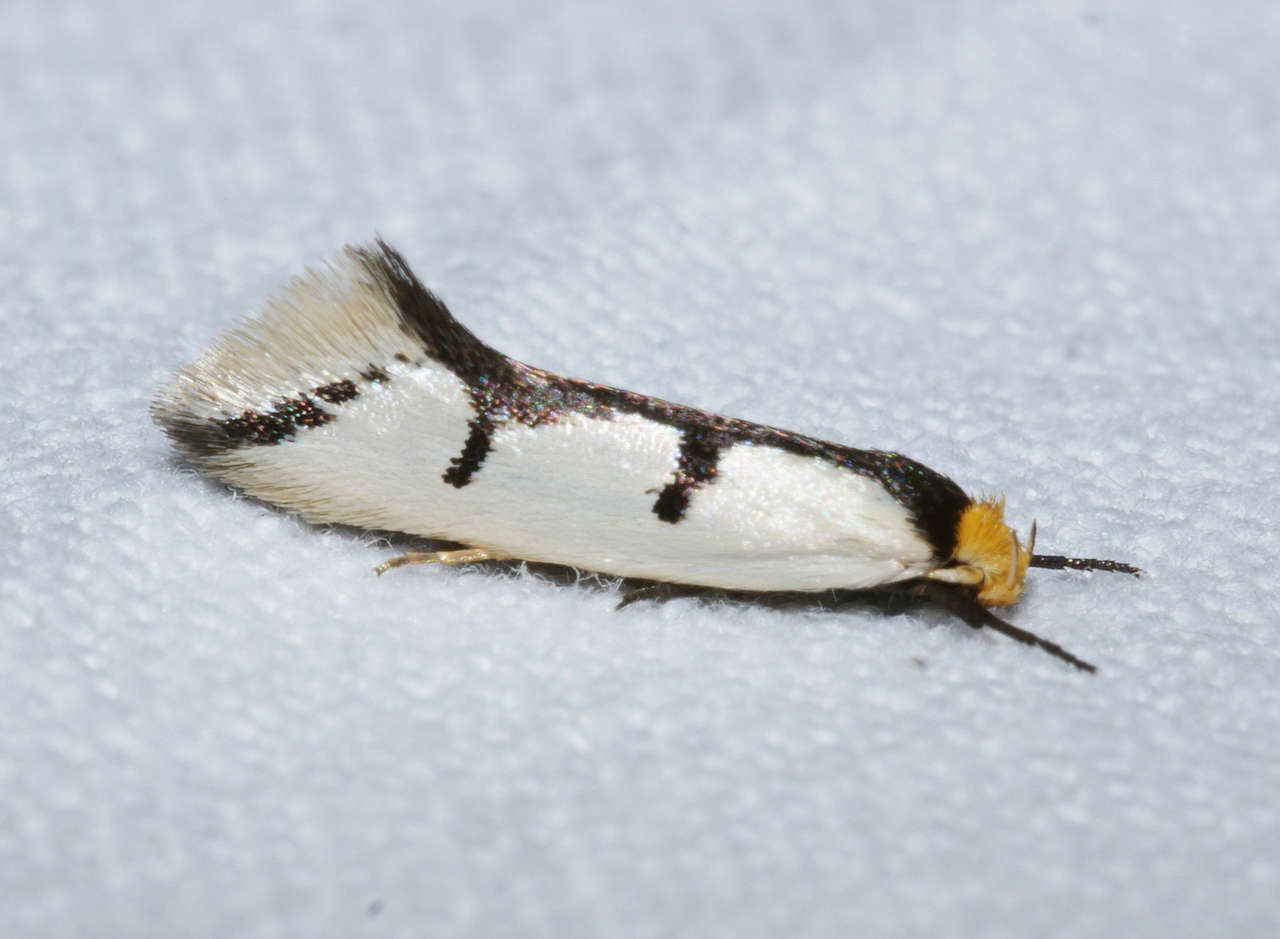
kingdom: Animalia
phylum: Arthropoda
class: Insecta
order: Lepidoptera
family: Oecophoridae
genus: Ocystola
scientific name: Ocystola crystallina
